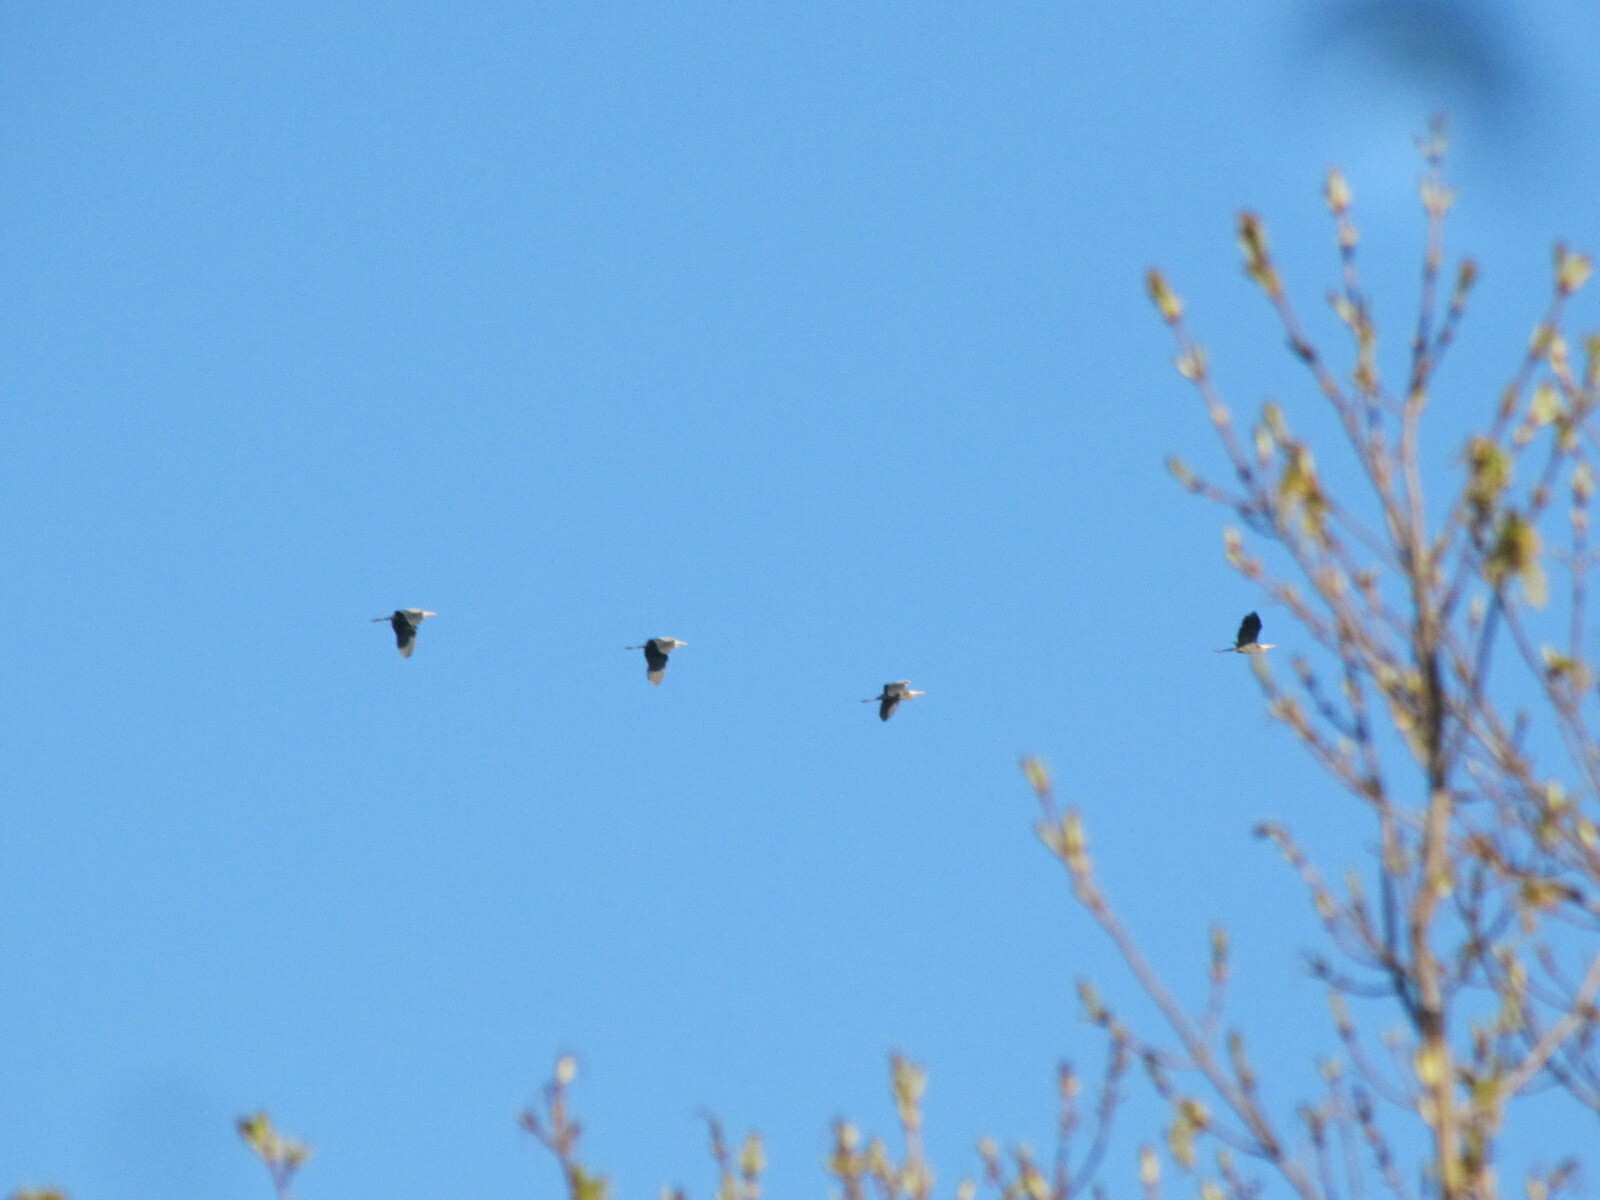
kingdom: Animalia
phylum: Chordata
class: Aves
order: Pelecaniformes
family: Ardeidae
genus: Ardea
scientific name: Ardea herodias
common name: Great blue heron
